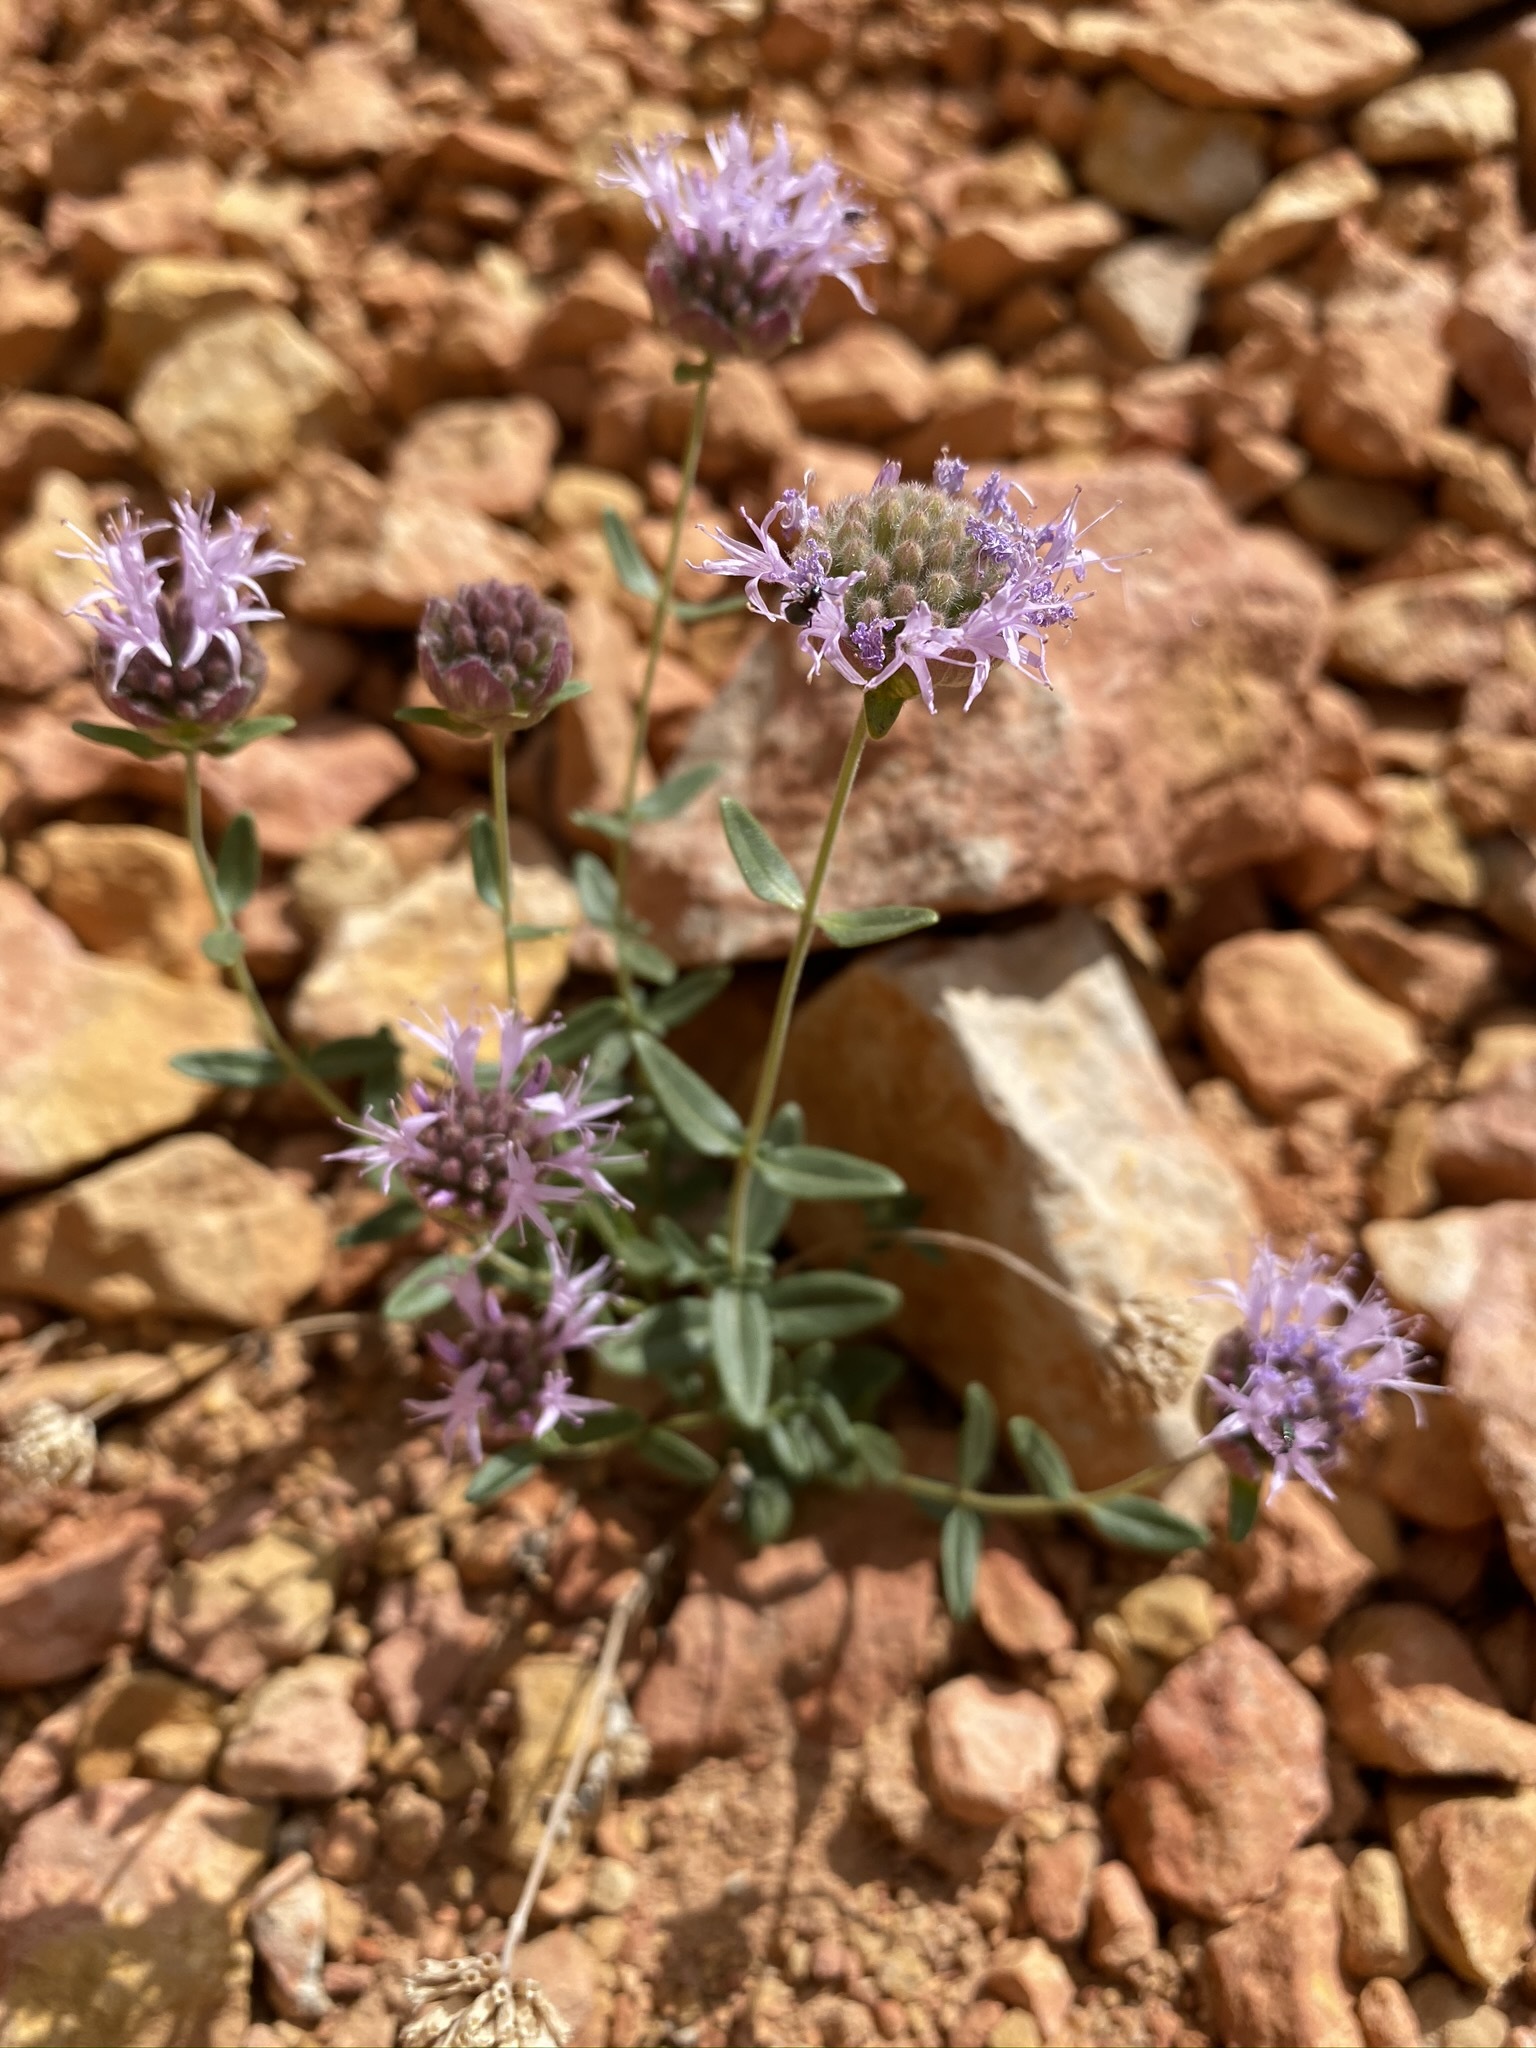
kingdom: Plantae
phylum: Tracheophyta
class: Magnoliopsida
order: Lamiales
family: Lamiaceae
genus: Monardella
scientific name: Monardella odoratissima
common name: Pacific monardella
